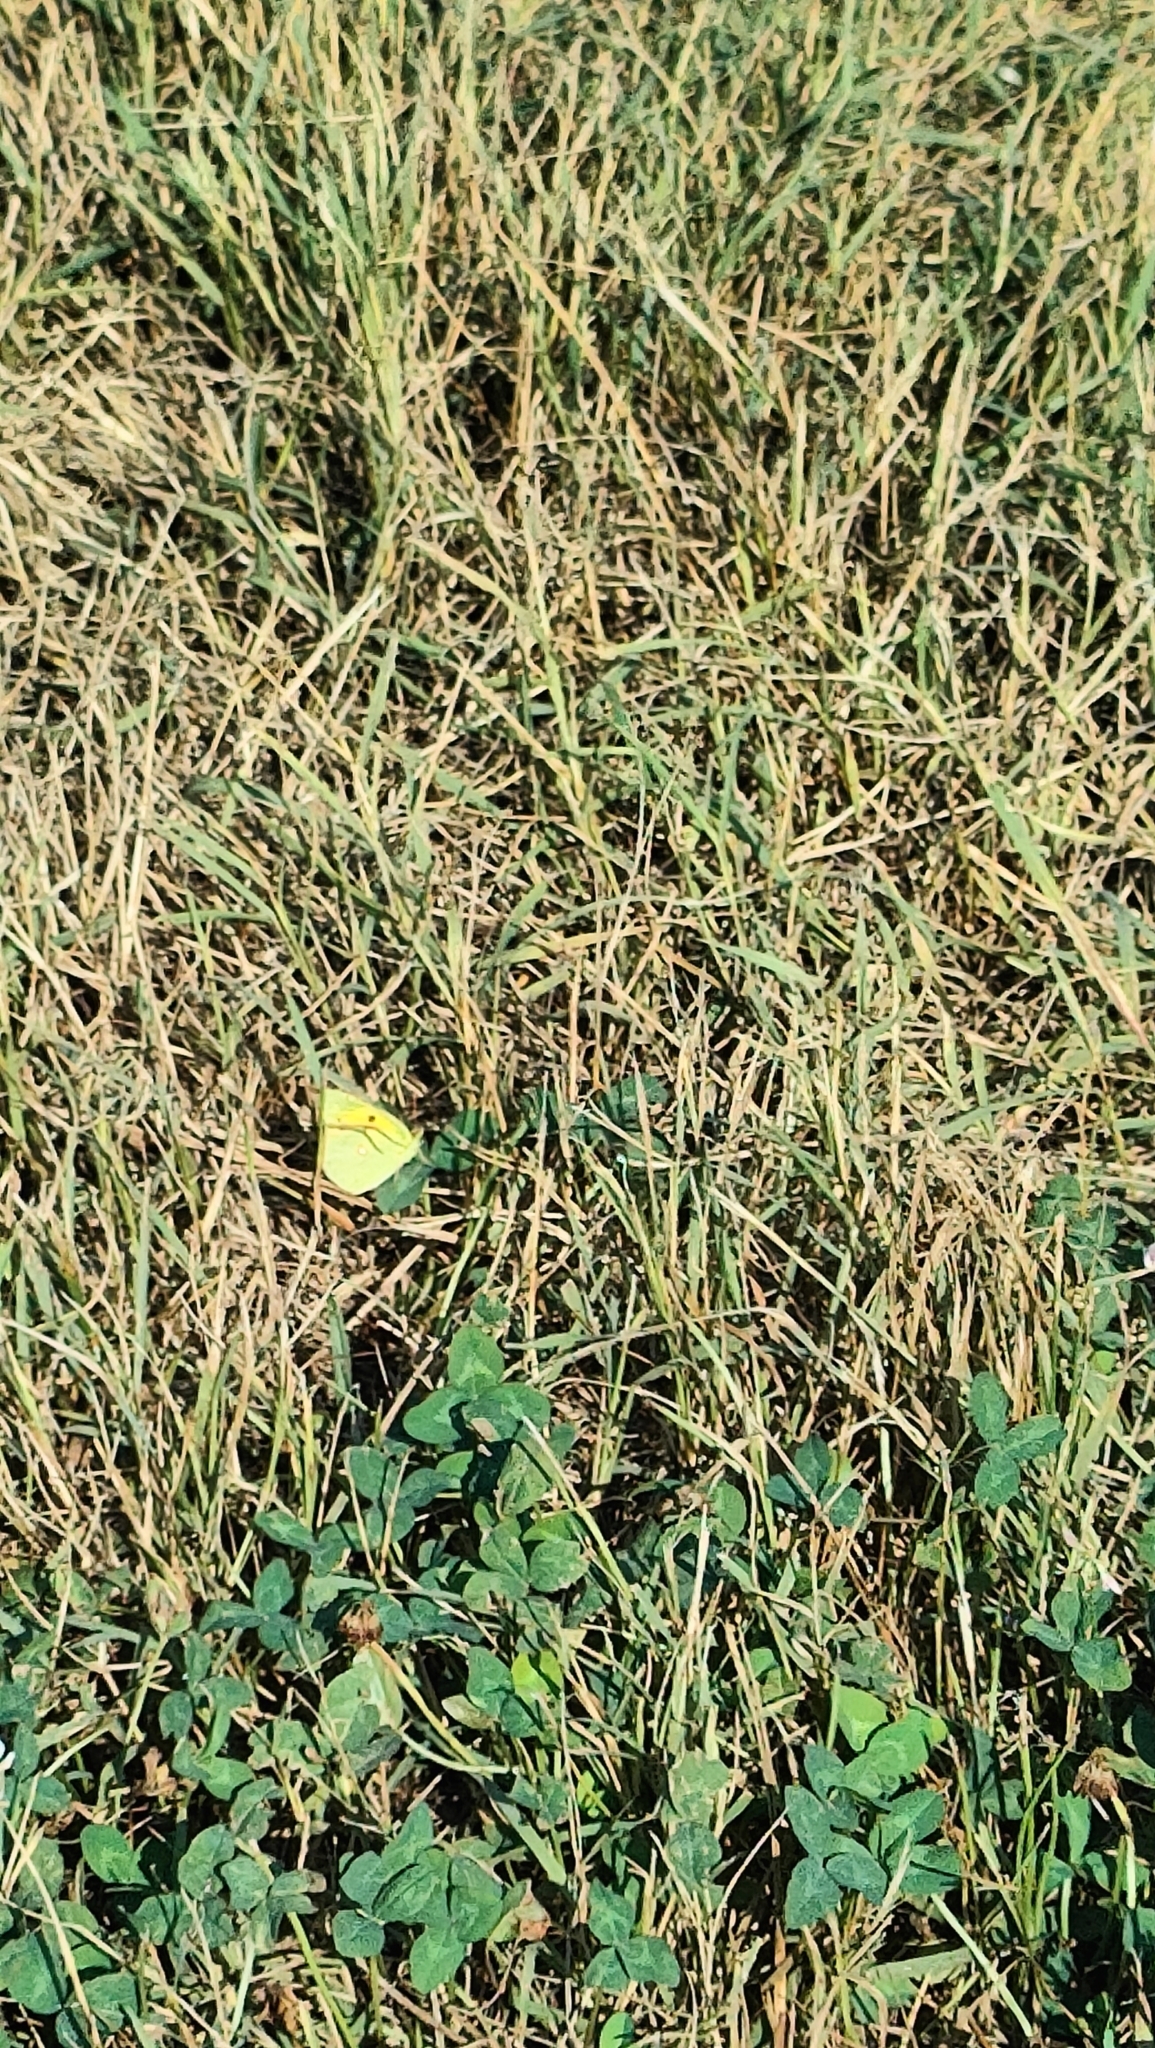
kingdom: Animalia
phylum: Arthropoda
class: Insecta
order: Lepidoptera
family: Pieridae
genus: Colias
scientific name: Colias croceus
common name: Clouded yellow
